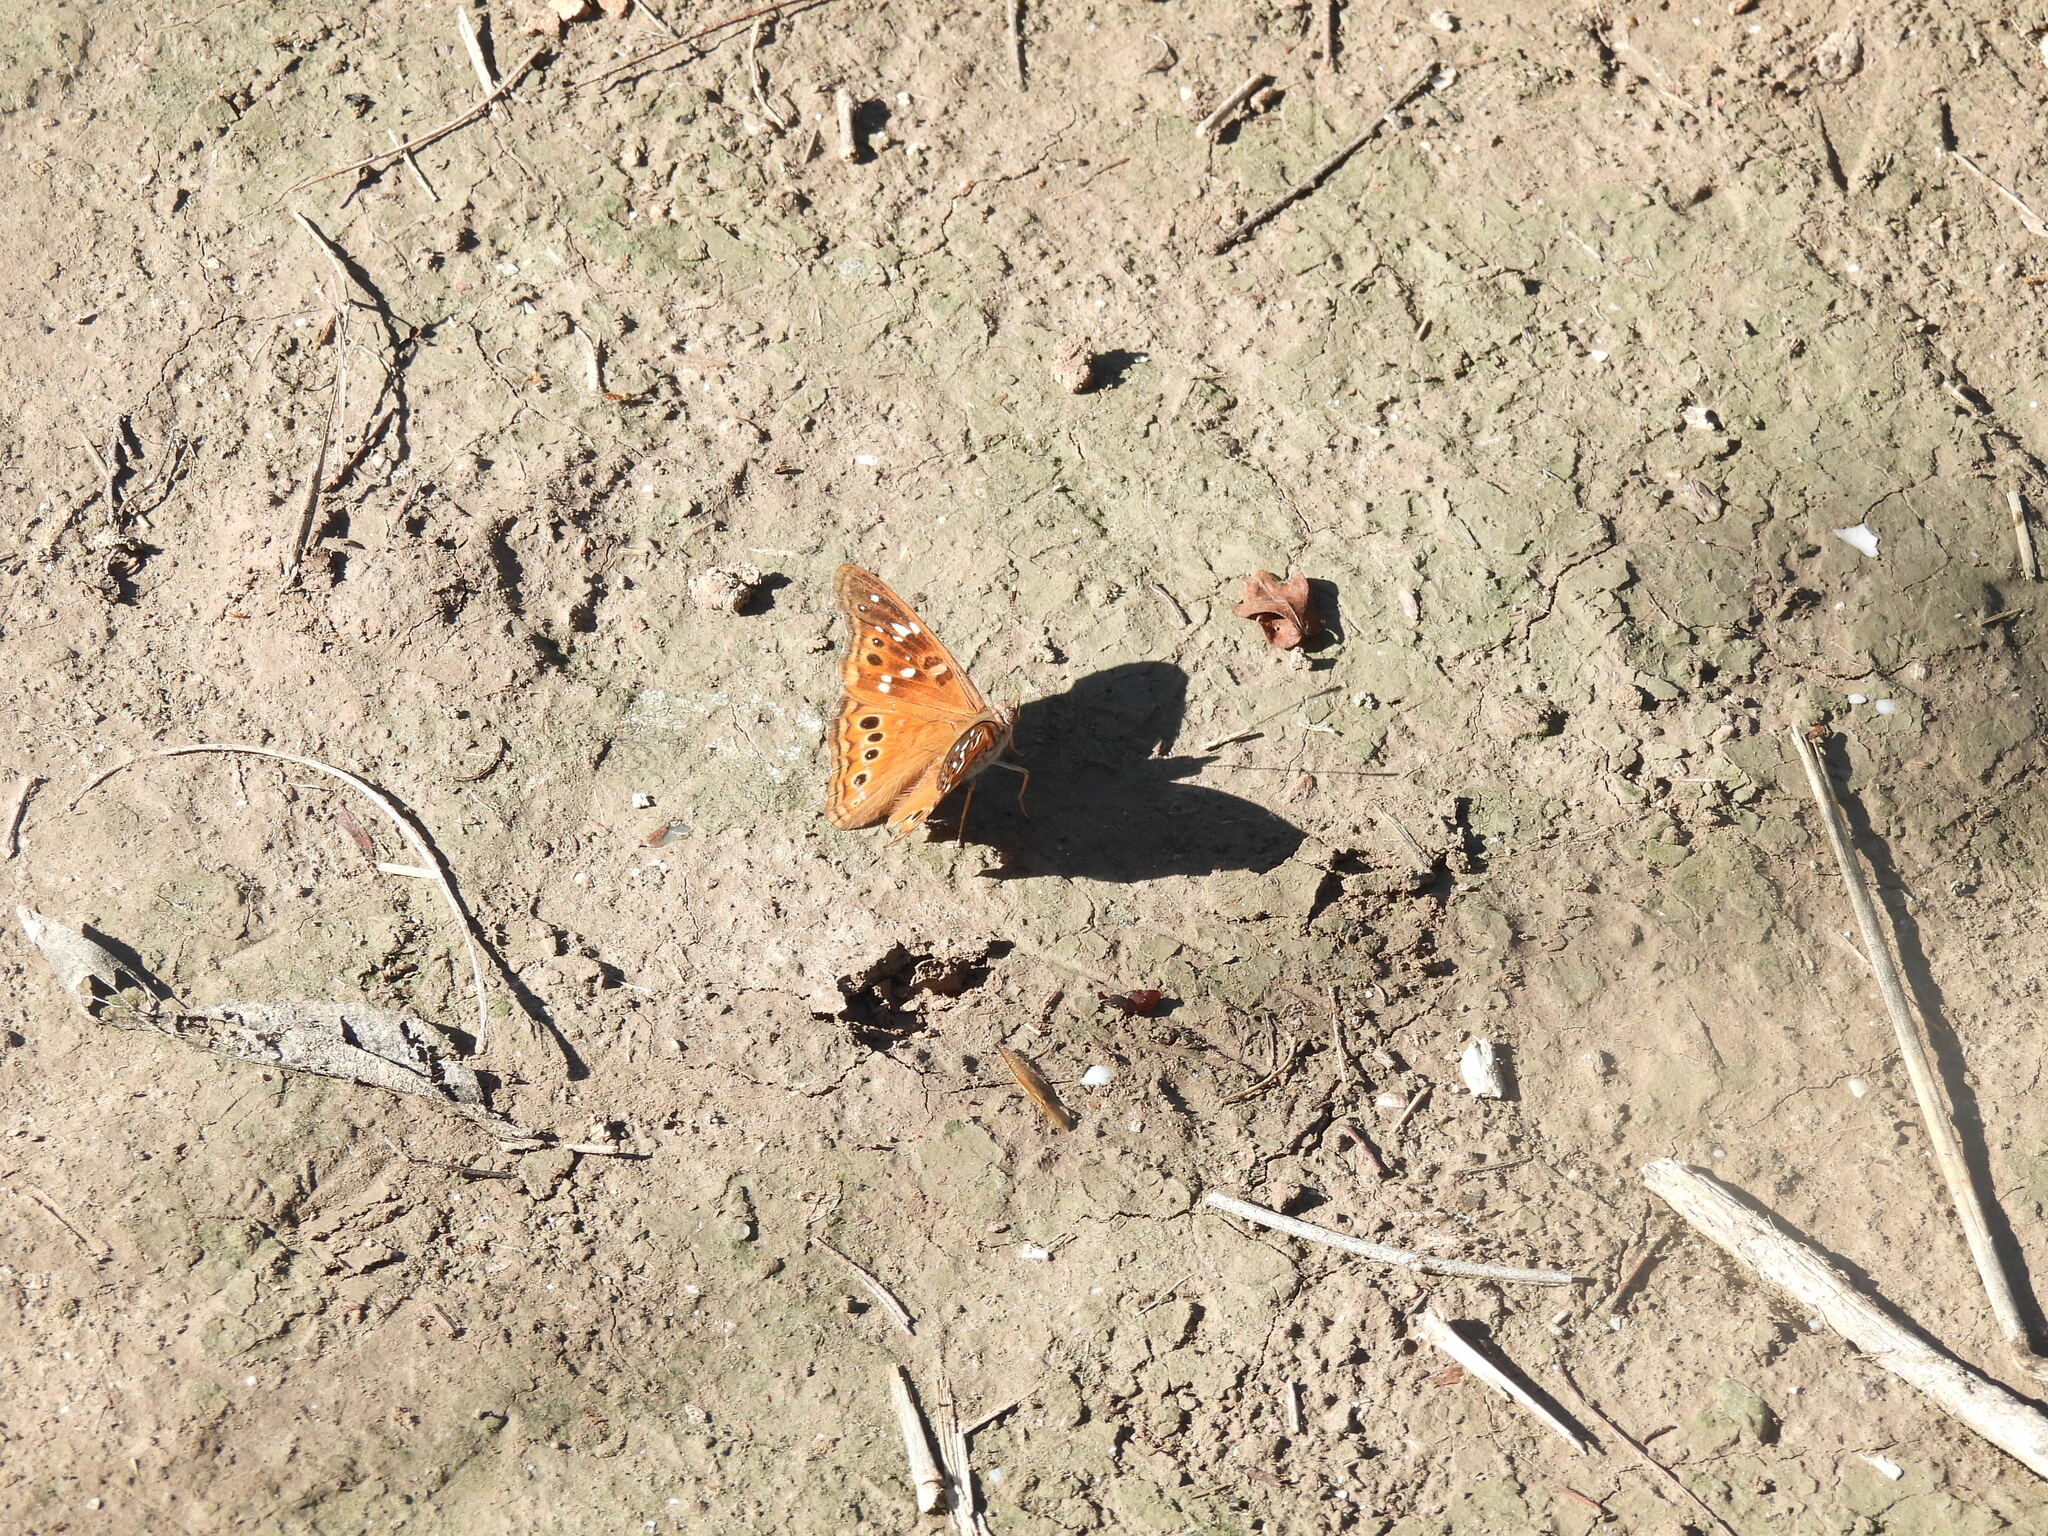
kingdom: Animalia
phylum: Arthropoda
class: Insecta
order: Lepidoptera
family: Nymphalidae
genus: Asterocampa
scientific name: Asterocampa leilia
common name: Empress leilia
